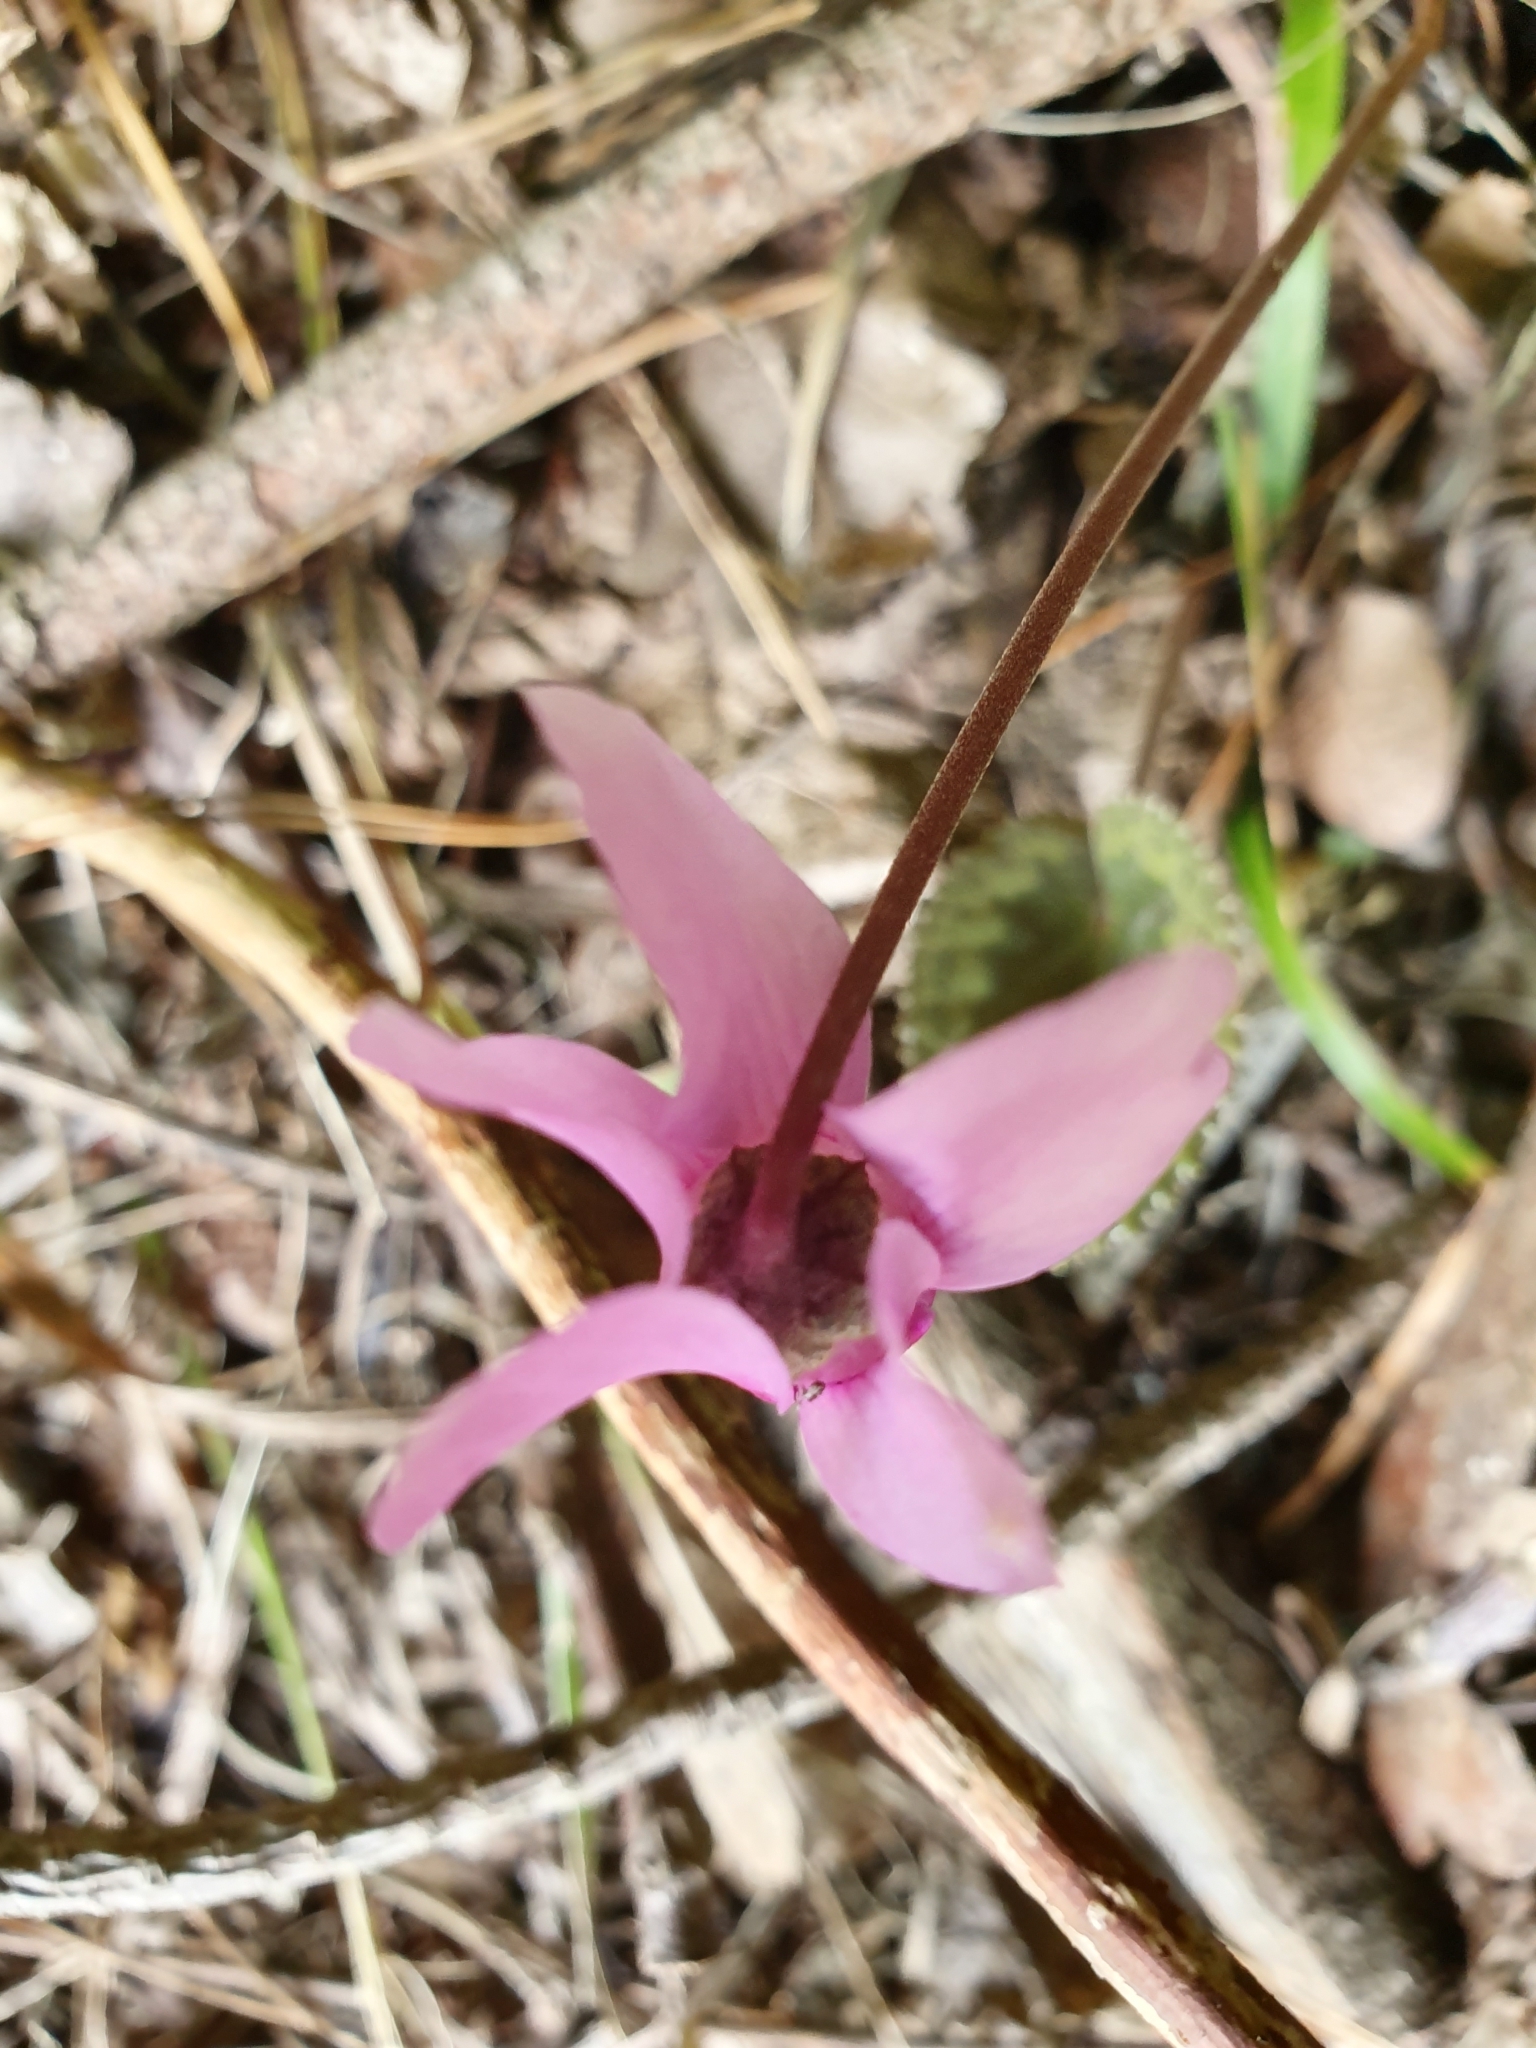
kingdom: Plantae
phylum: Tracheophyta
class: Magnoliopsida
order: Ericales
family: Primulaceae
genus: Cyclamen
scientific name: Cyclamen purpurascens
